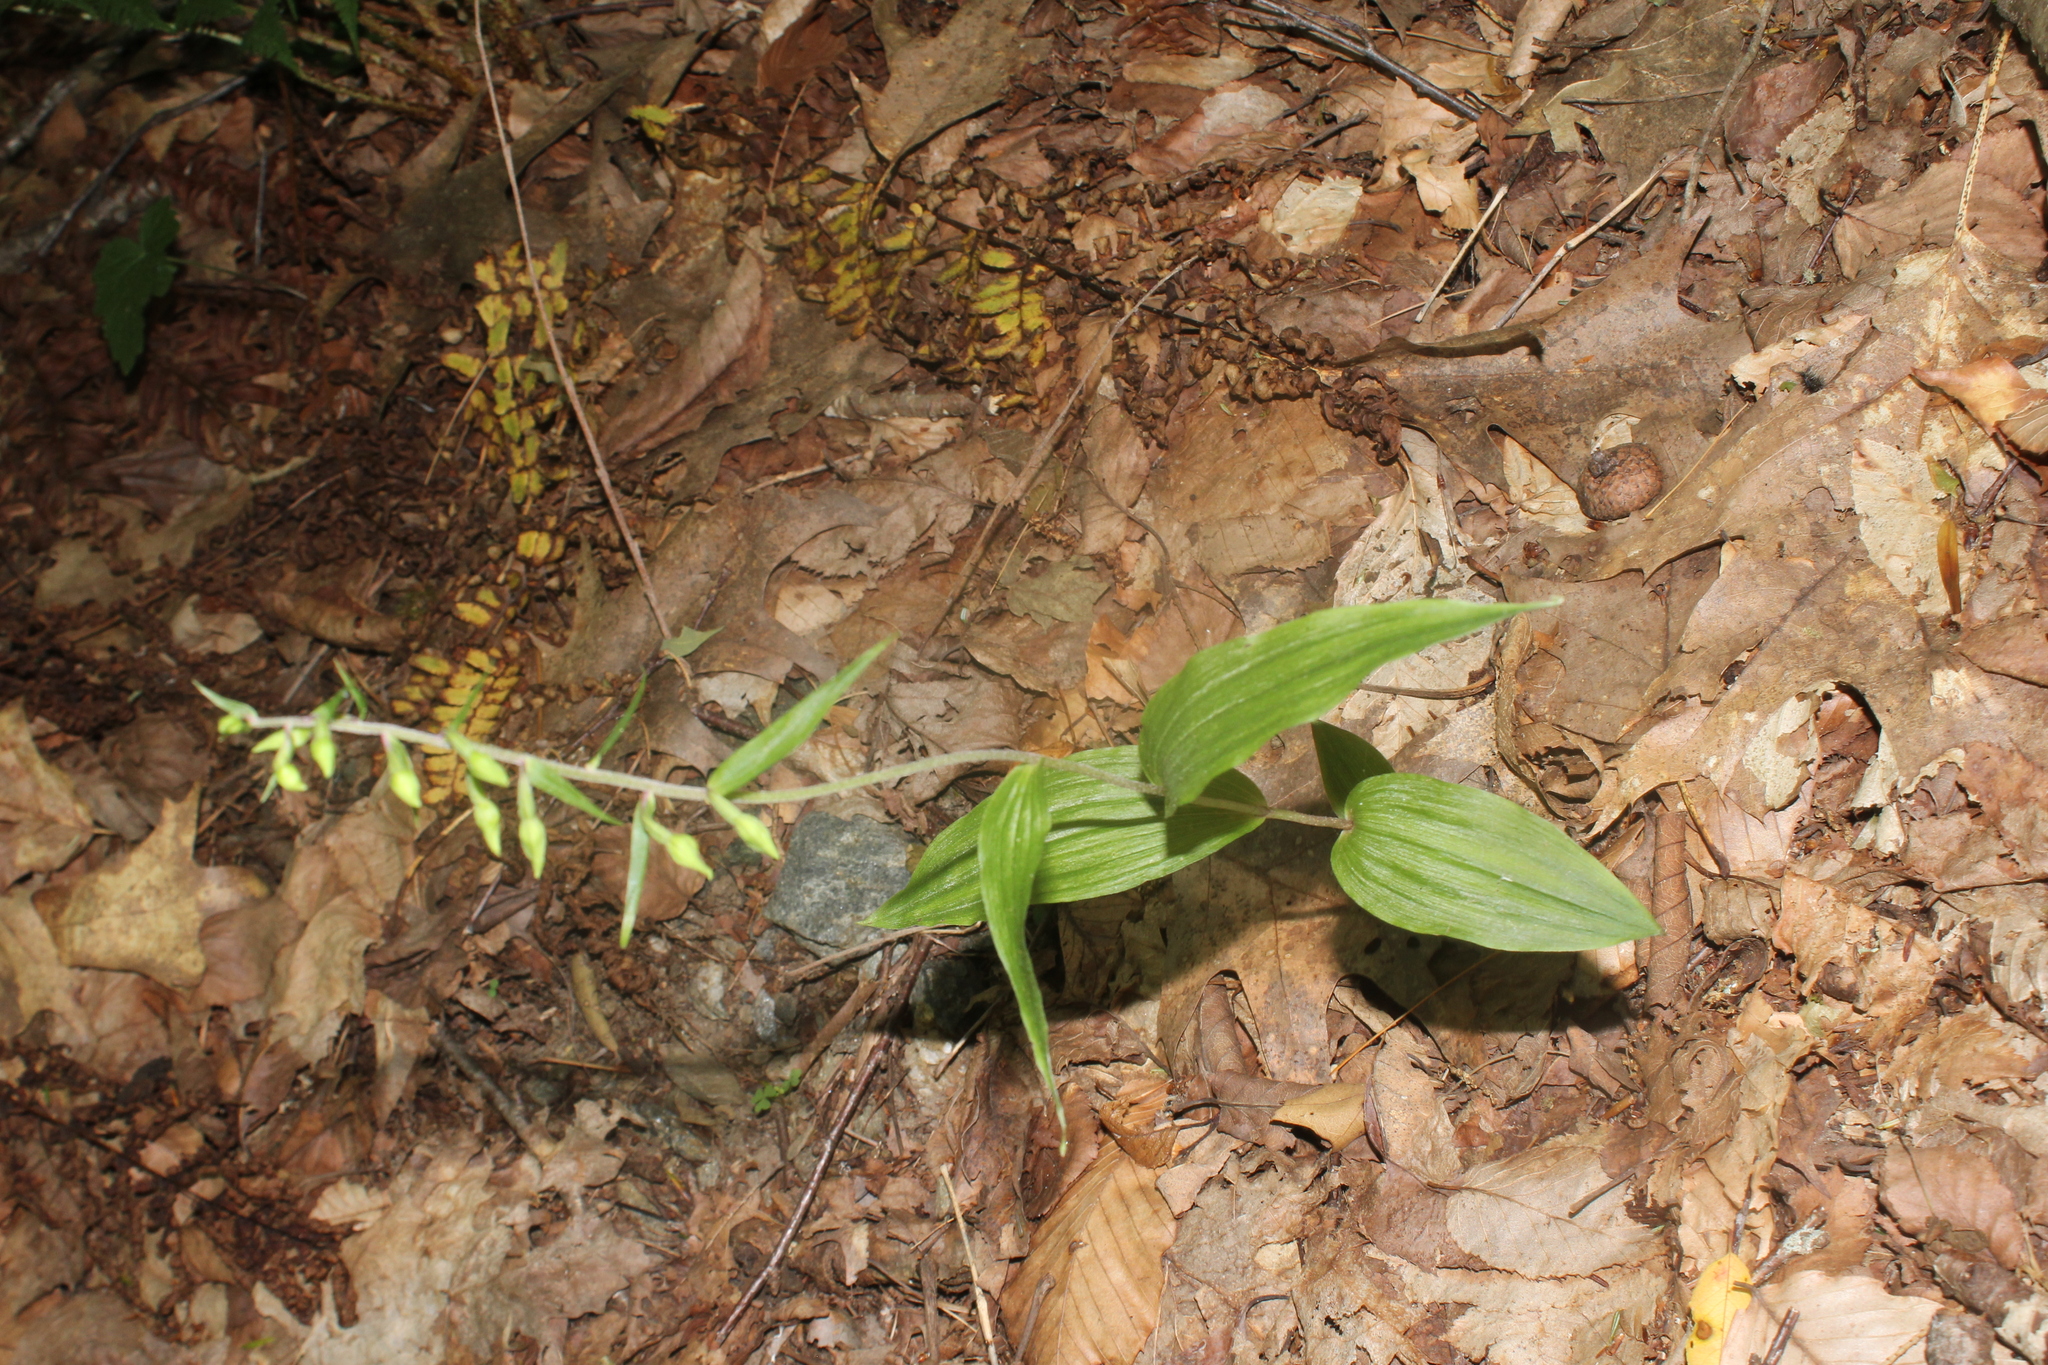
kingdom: Plantae
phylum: Tracheophyta
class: Liliopsida
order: Asparagales
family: Orchidaceae
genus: Epipactis
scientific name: Epipactis helleborine
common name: Broad-leaved helleborine
